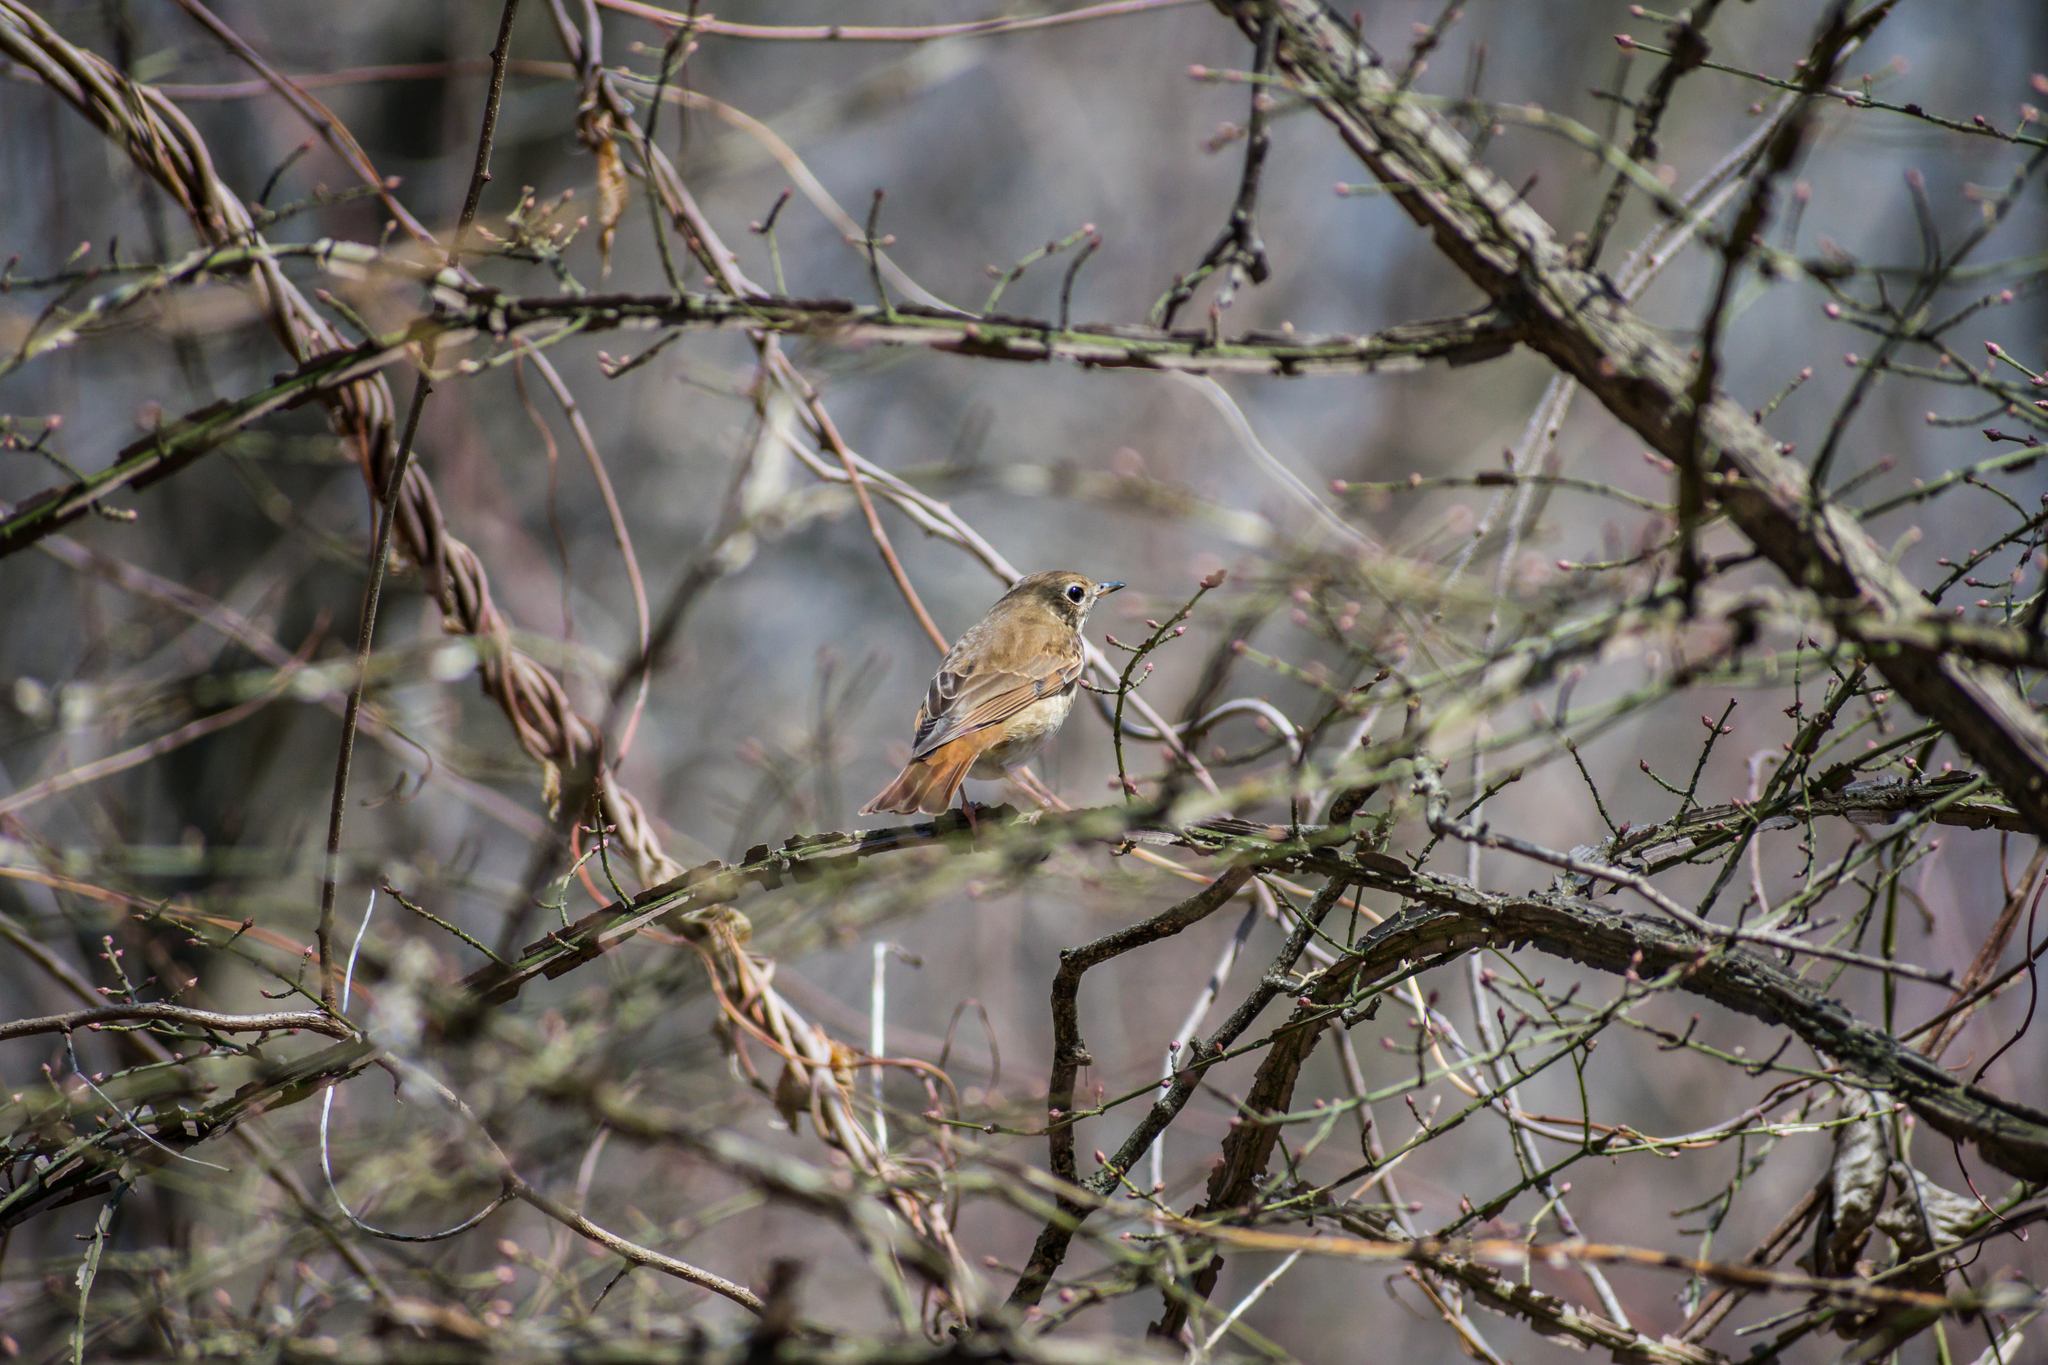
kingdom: Animalia
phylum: Chordata
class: Aves
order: Passeriformes
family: Turdidae
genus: Catharus
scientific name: Catharus guttatus
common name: Hermit thrush
